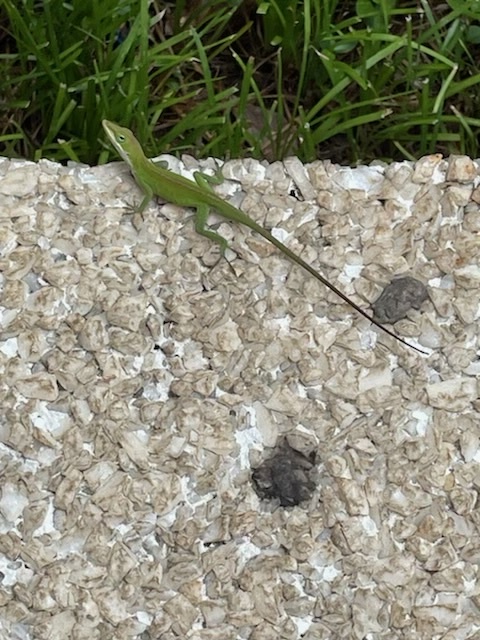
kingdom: Animalia
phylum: Chordata
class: Squamata
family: Dactyloidae
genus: Anolis
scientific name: Anolis carolinensis
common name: Green anole
